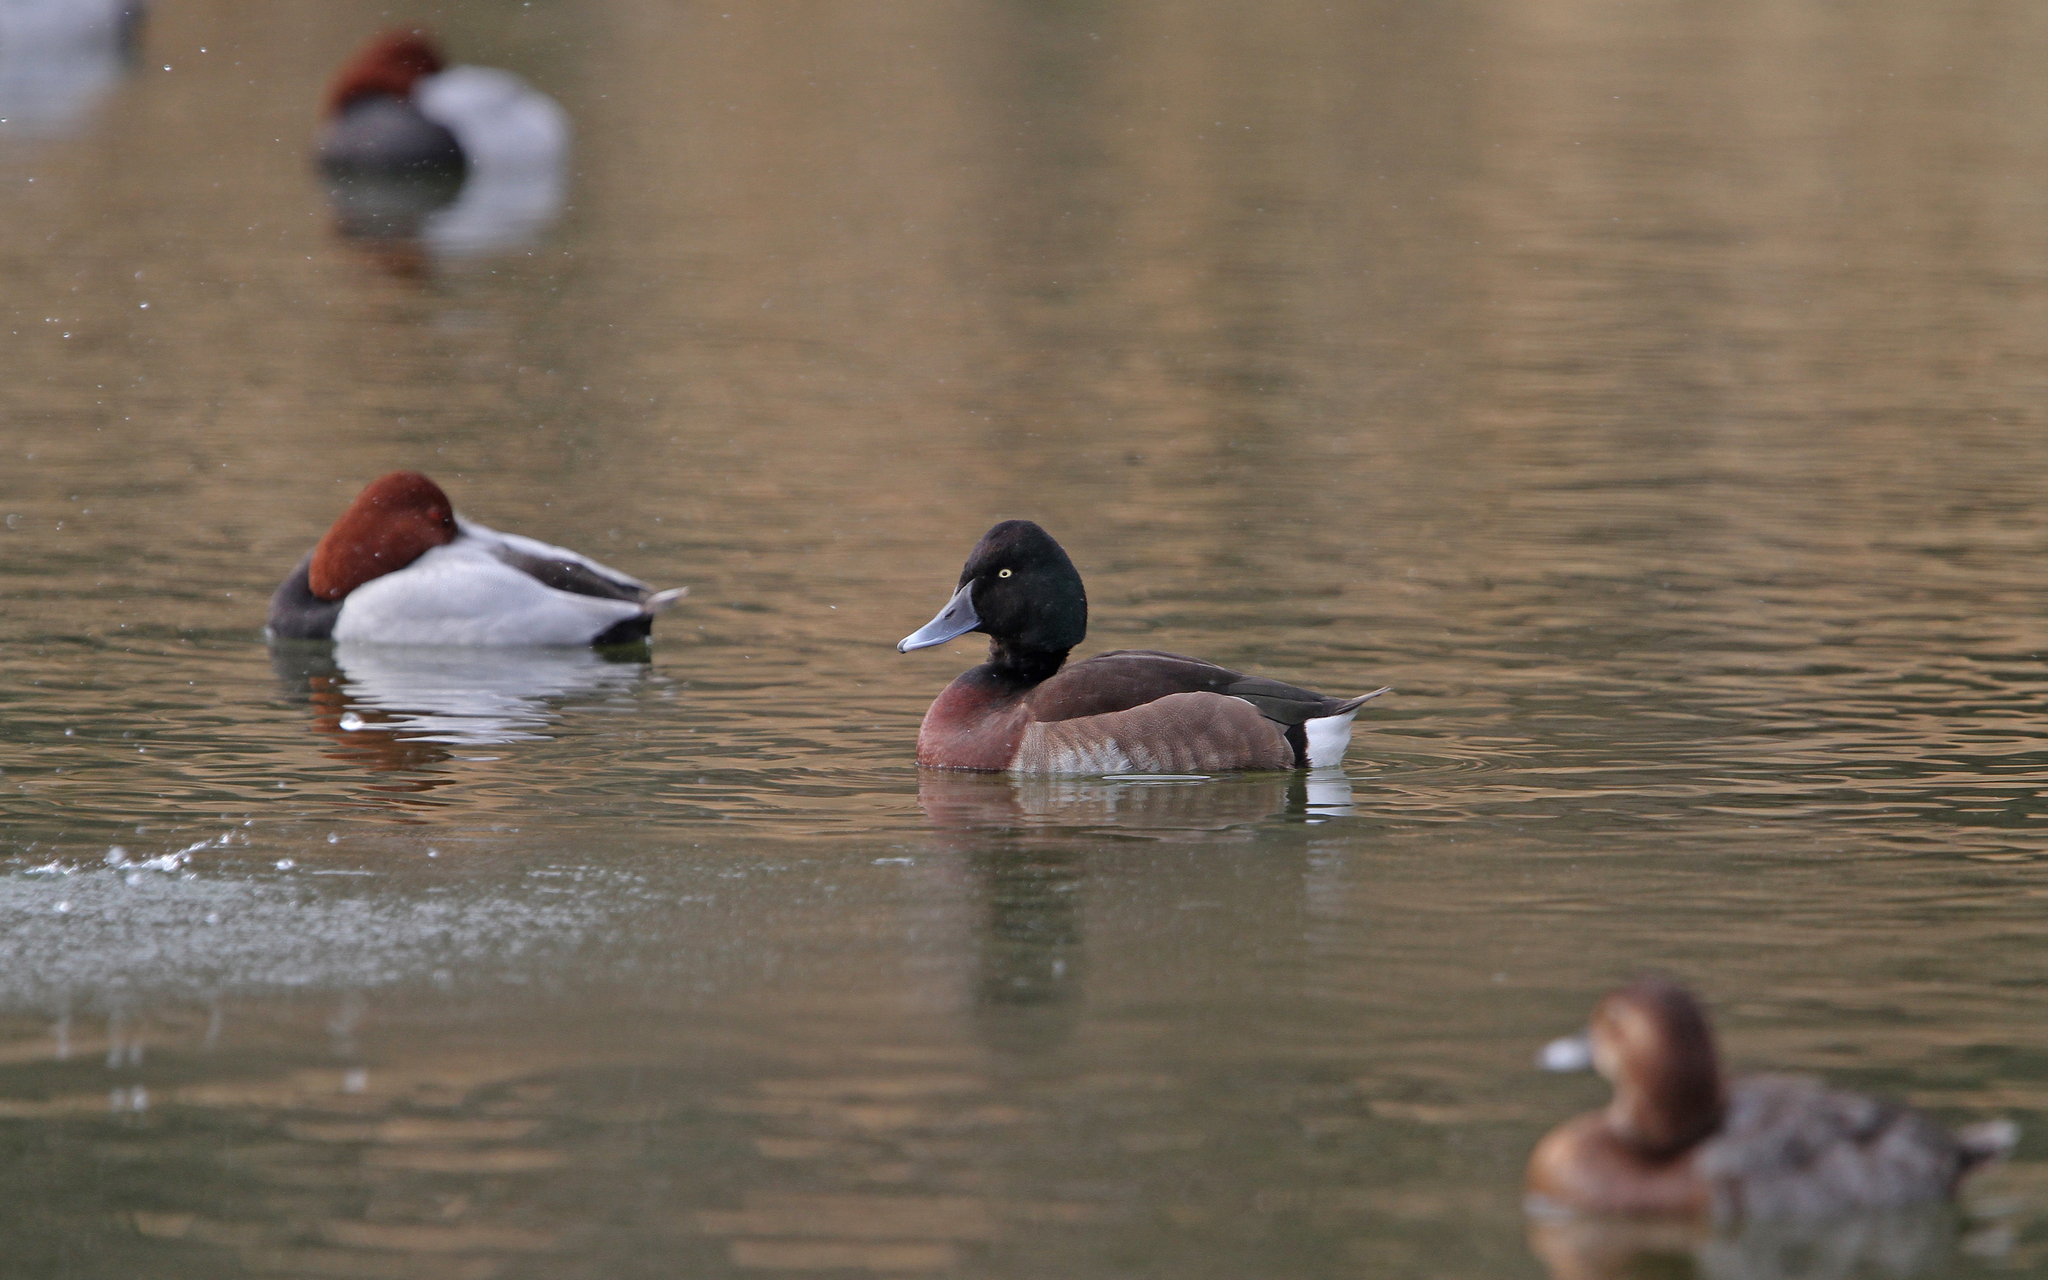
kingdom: Animalia
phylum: Chordata
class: Aves
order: Anseriformes
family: Anatidae
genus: Aythya
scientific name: Aythya baeri
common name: Baer's pochard
